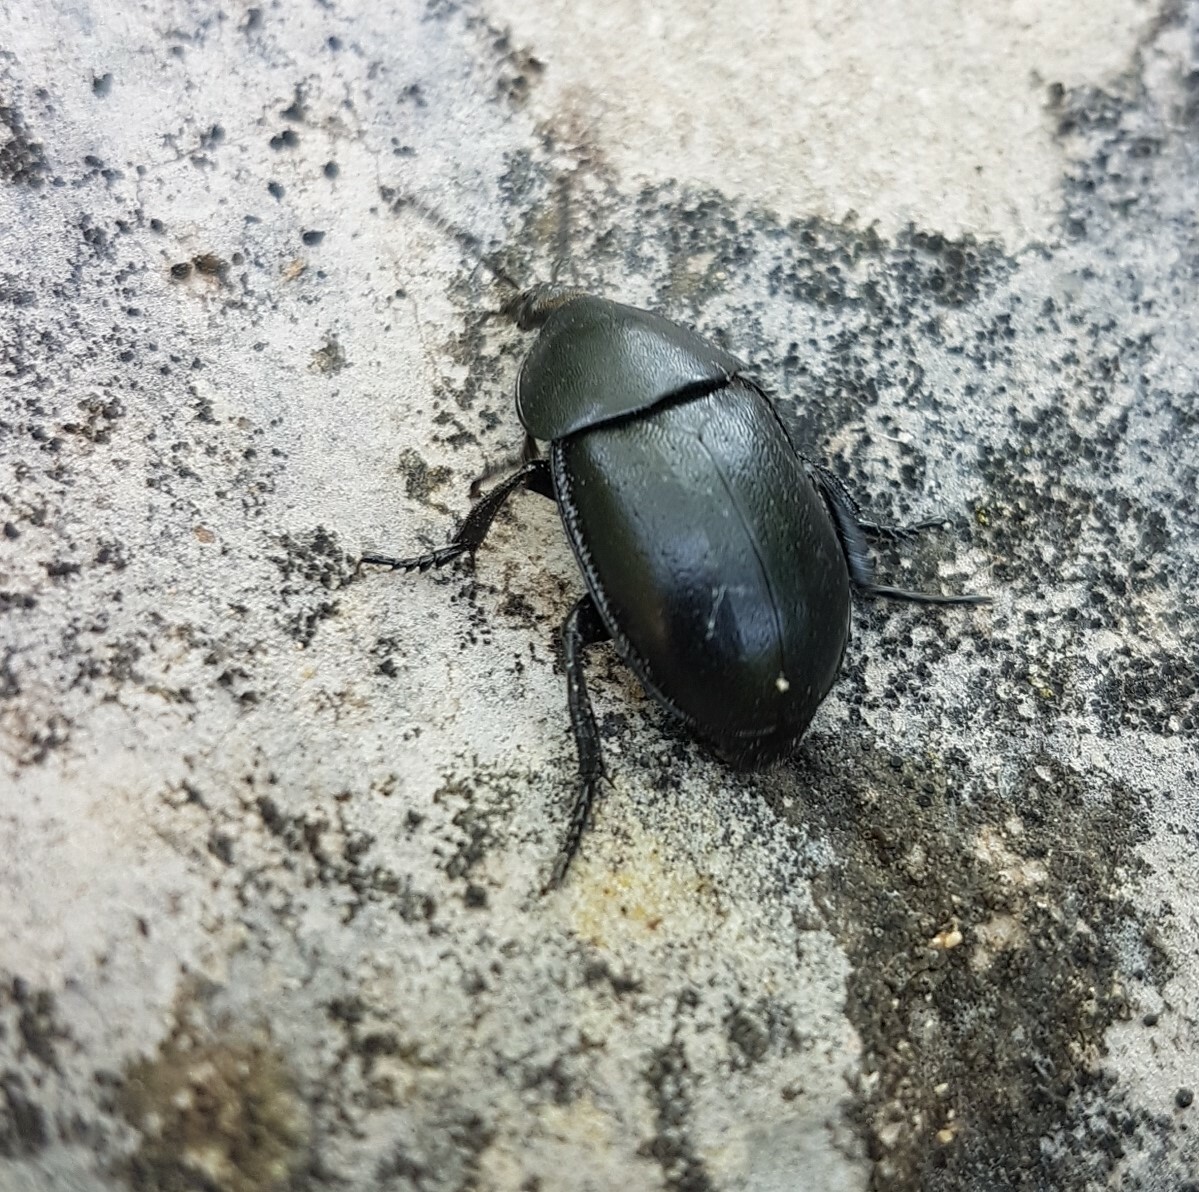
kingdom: Animalia
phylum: Arthropoda
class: Insecta
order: Coleoptera
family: Staphylinidae
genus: Silpha
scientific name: Silpha laevigata
